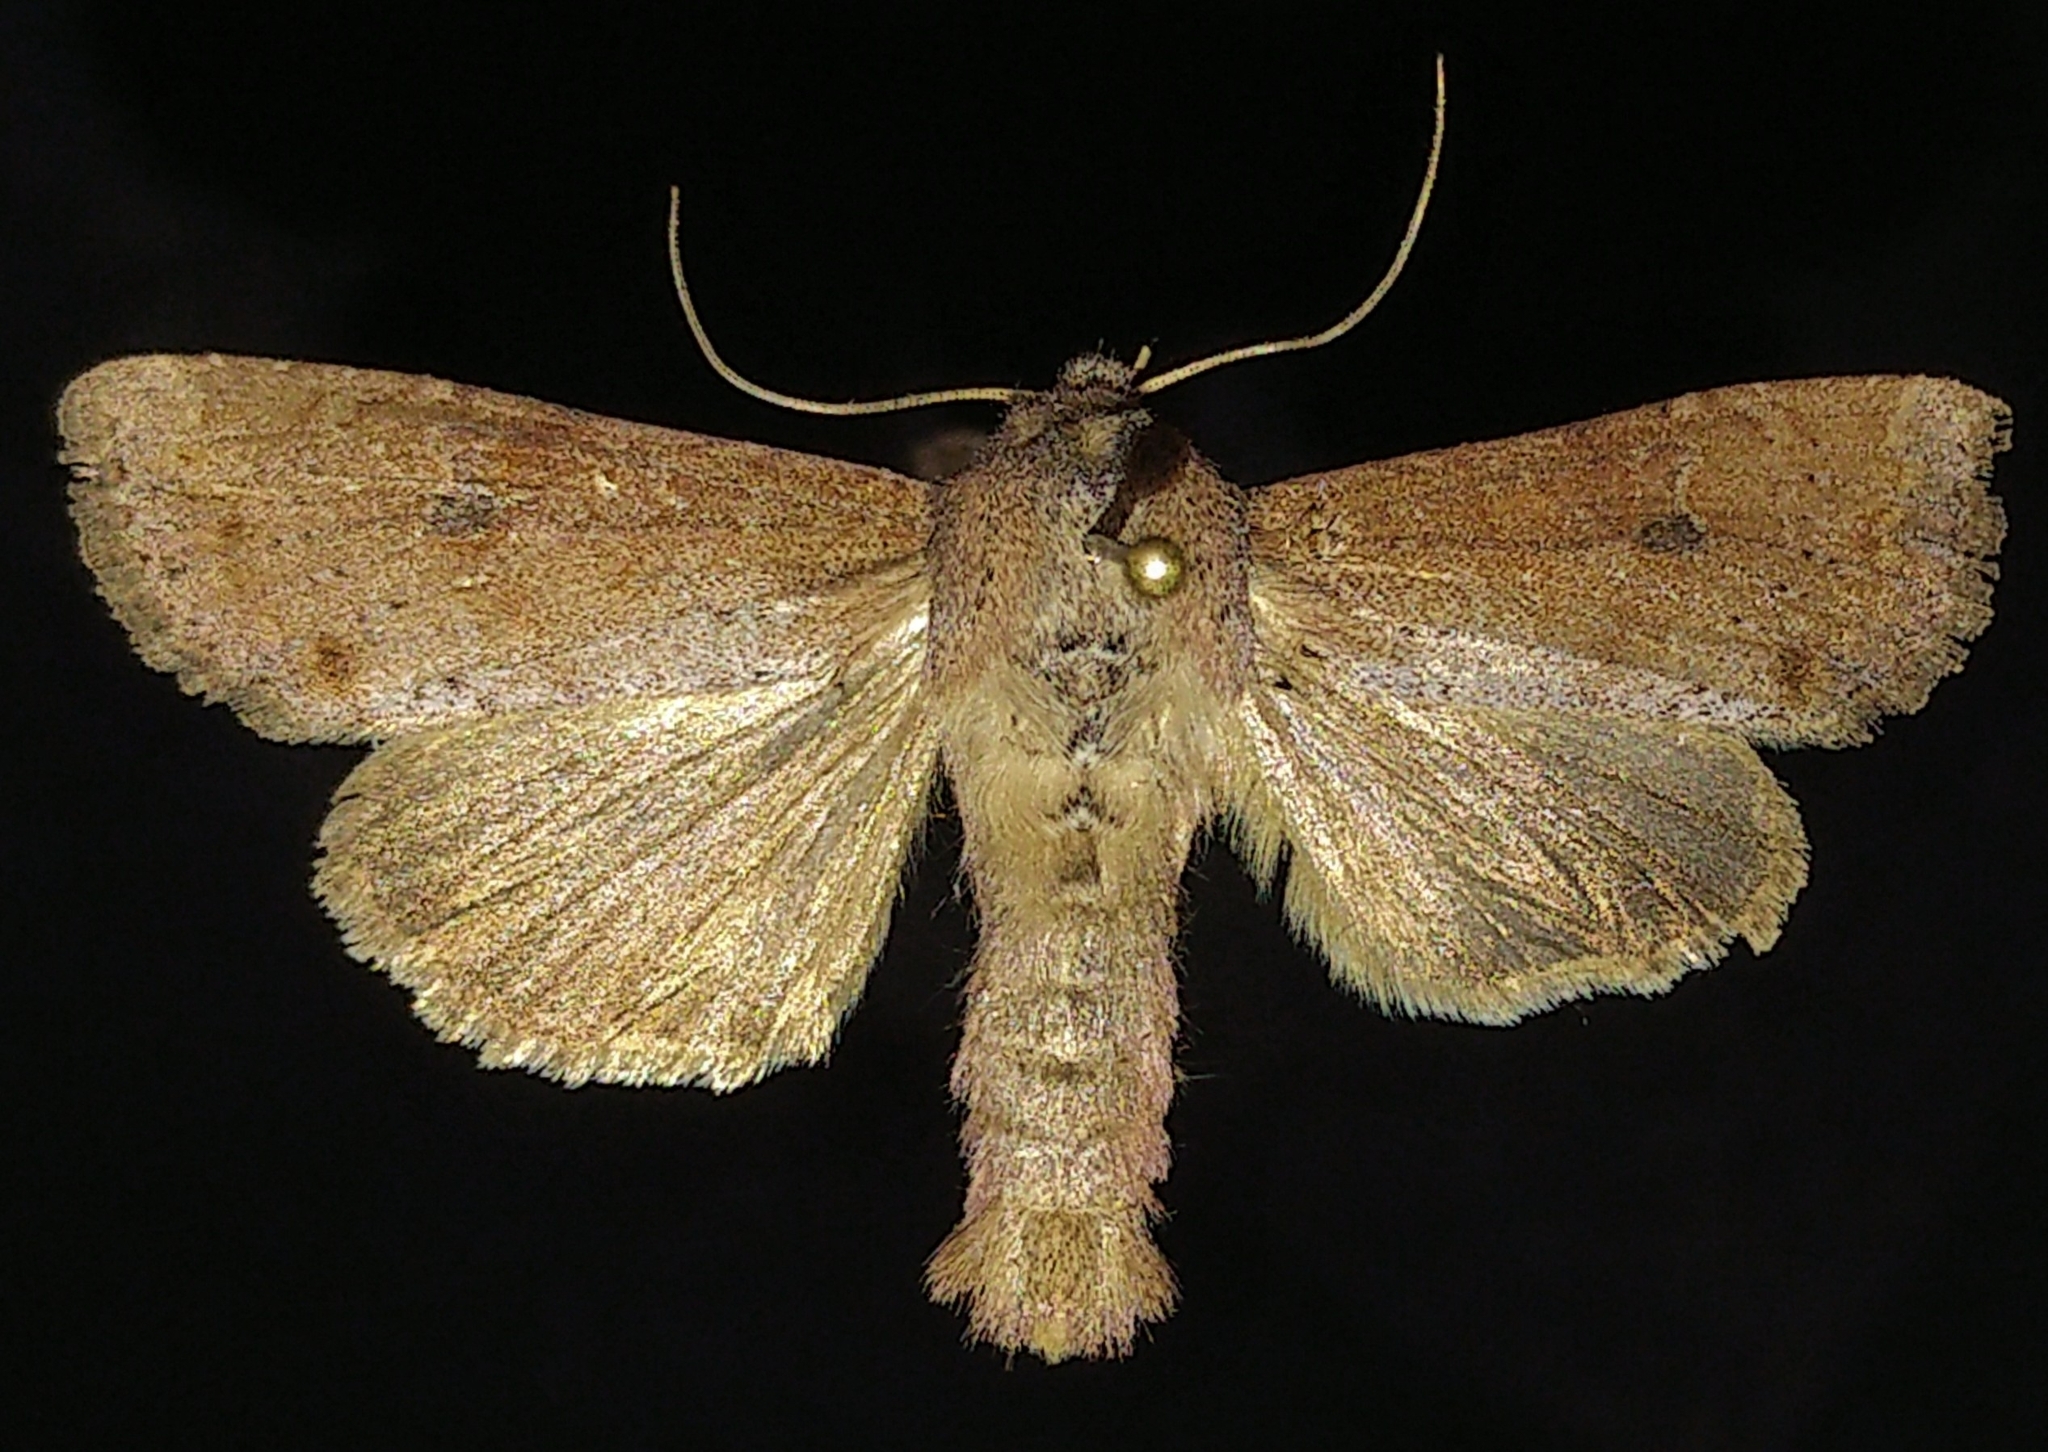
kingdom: Animalia
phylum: Arthropoda
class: Insecta
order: Lepidoptera
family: Noctuidae
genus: Apamea
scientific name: Apamea alia
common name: Fox apamea
